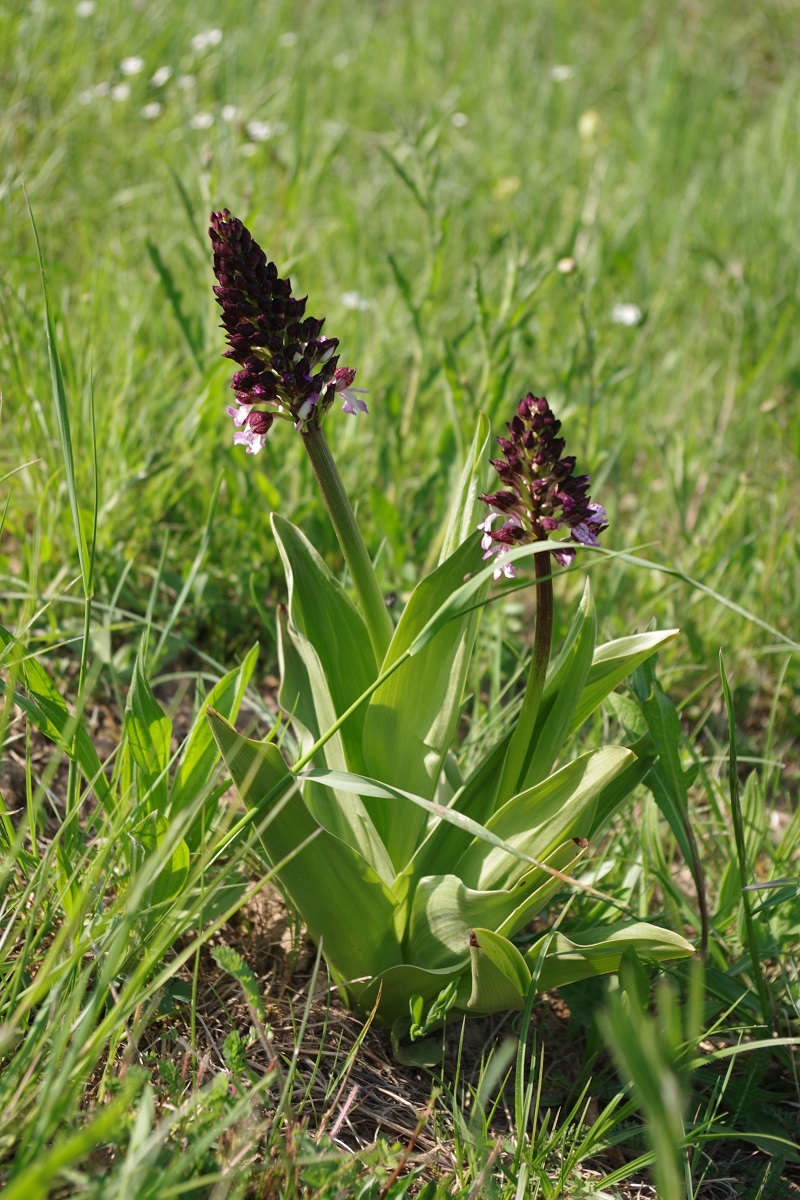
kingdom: Plantae
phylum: Tracheophyta
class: Liliopsida
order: Asparagales
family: Orchidaceae
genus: Orchis
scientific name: Orchis purpurea
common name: Lady orchid
